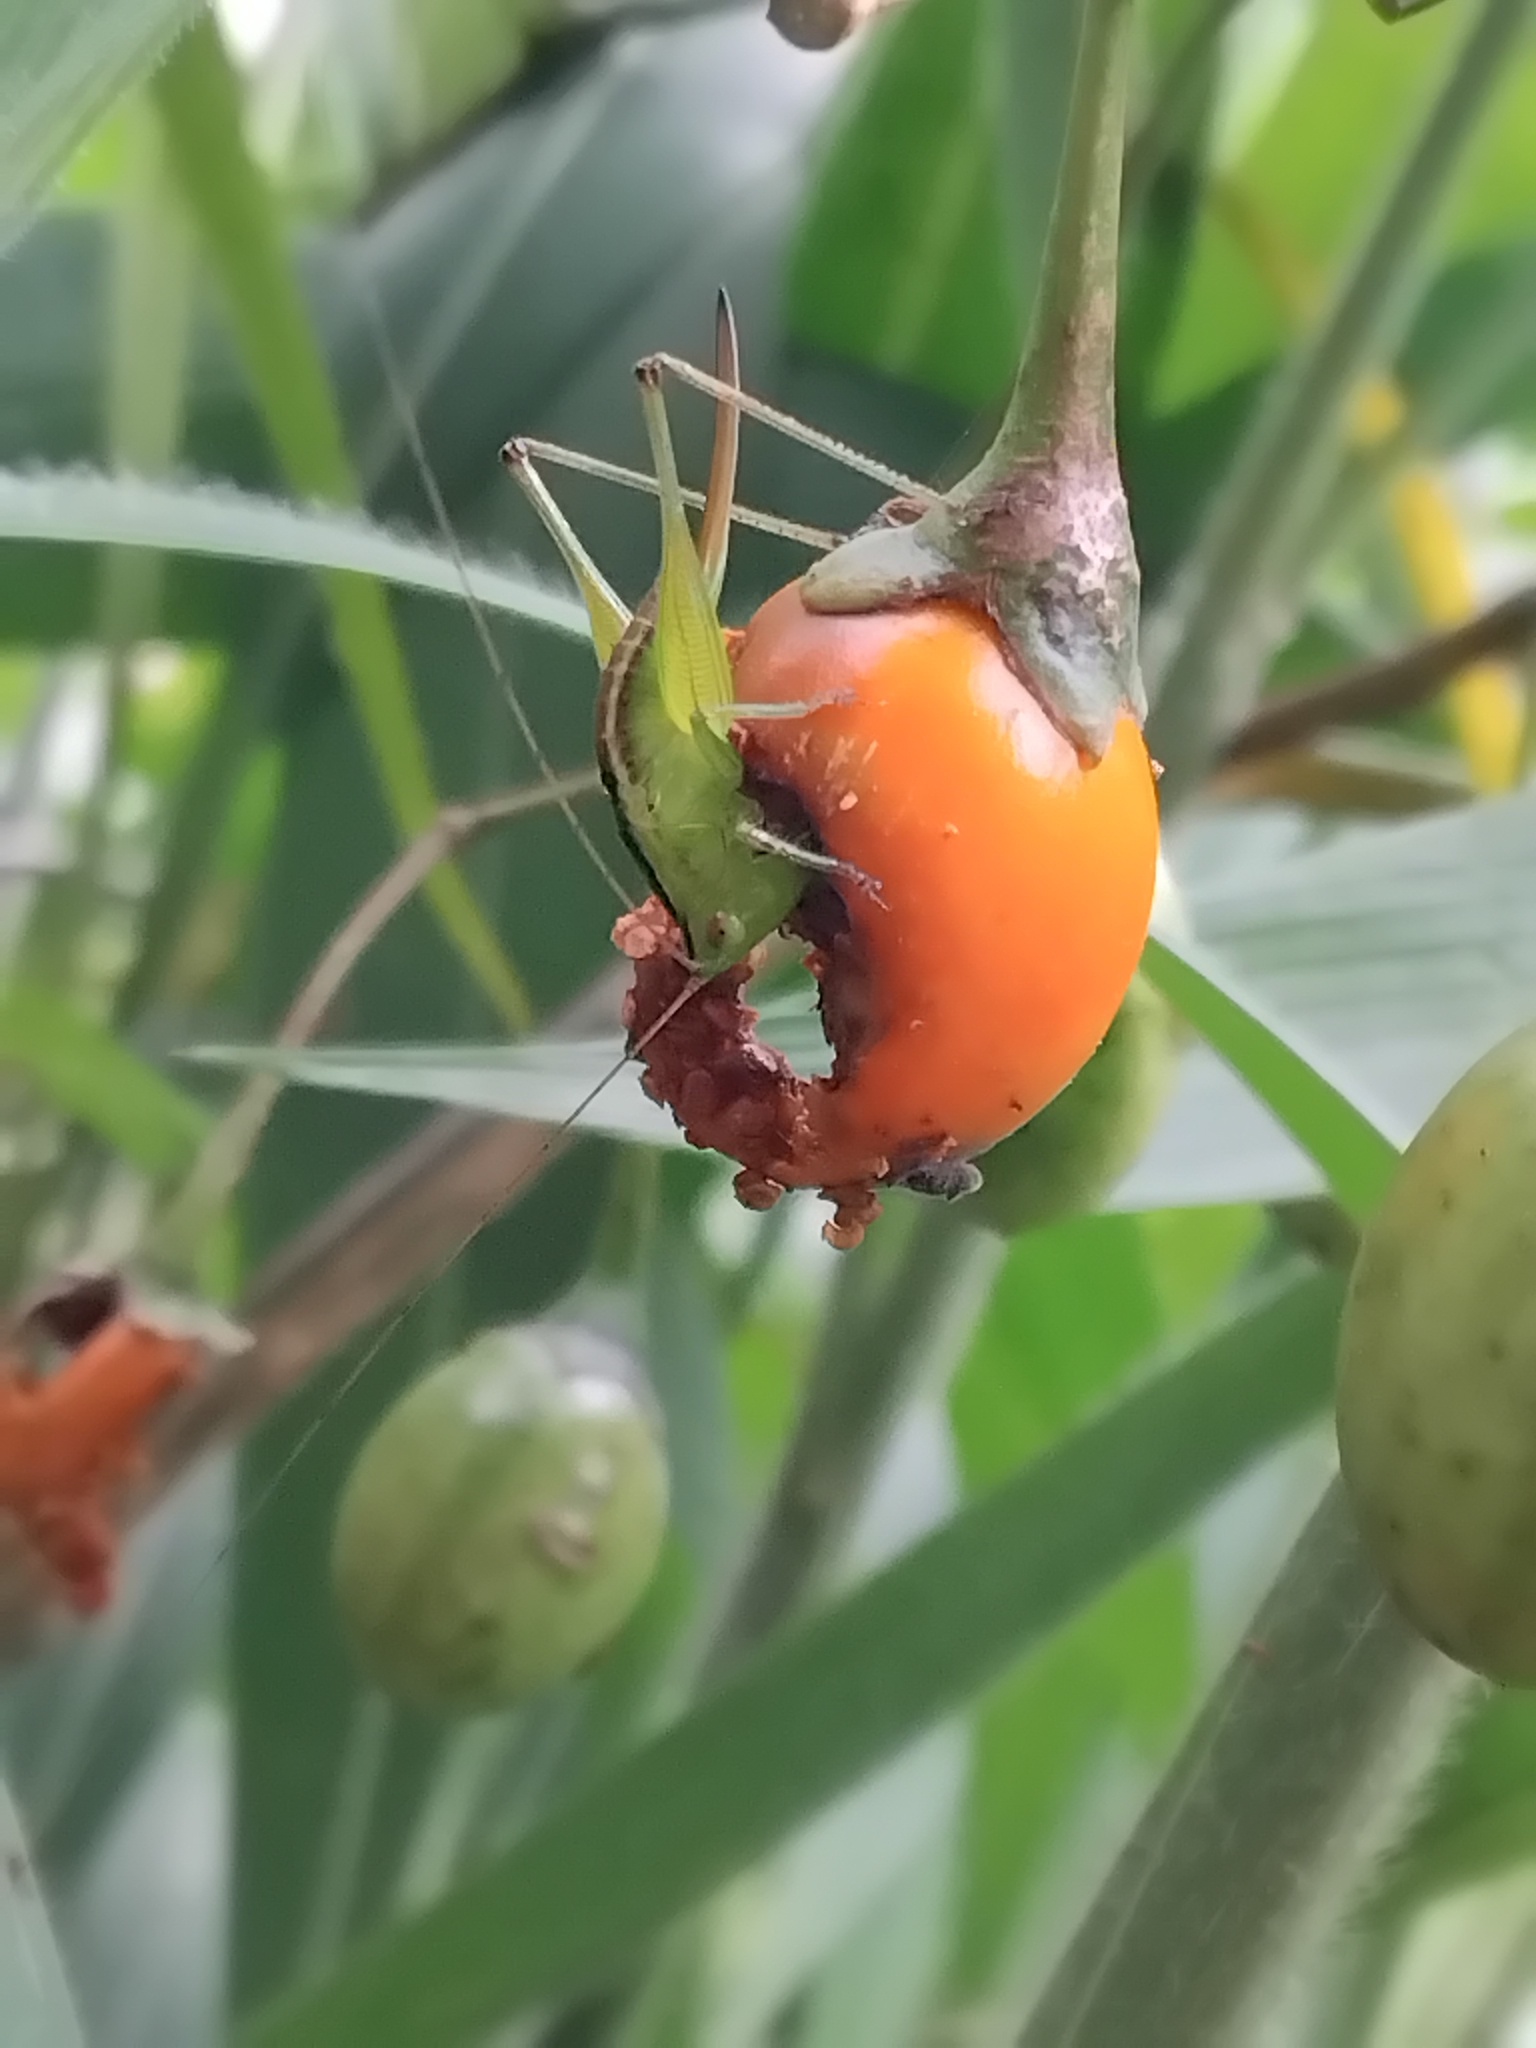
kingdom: Animalia
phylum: Arthropoda
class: Insecta
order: Orthoptera
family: Tettigoniidae
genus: Conocephalus
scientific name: Conocephalus bilineatus
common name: Small meadow katydid
